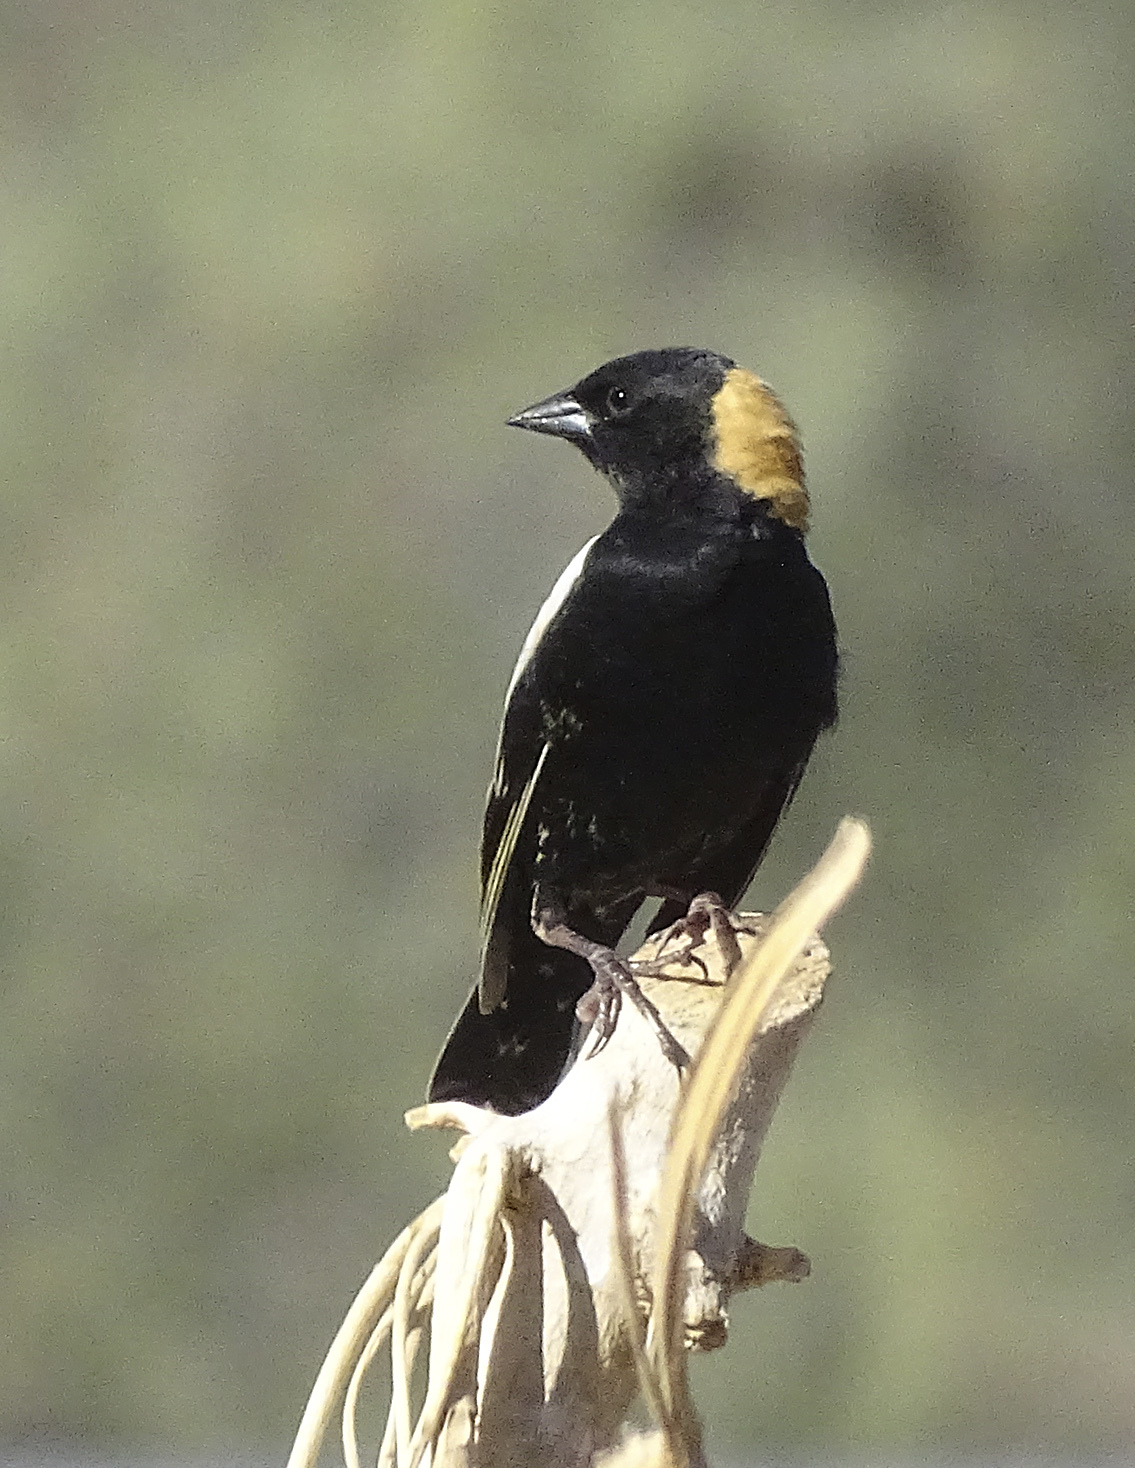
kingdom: Animalia
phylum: Chordata
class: Aves
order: Passeriformes
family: Icteridae
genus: Dolichonyx
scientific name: Dolichonyx oryzivorus
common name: Bobolink
